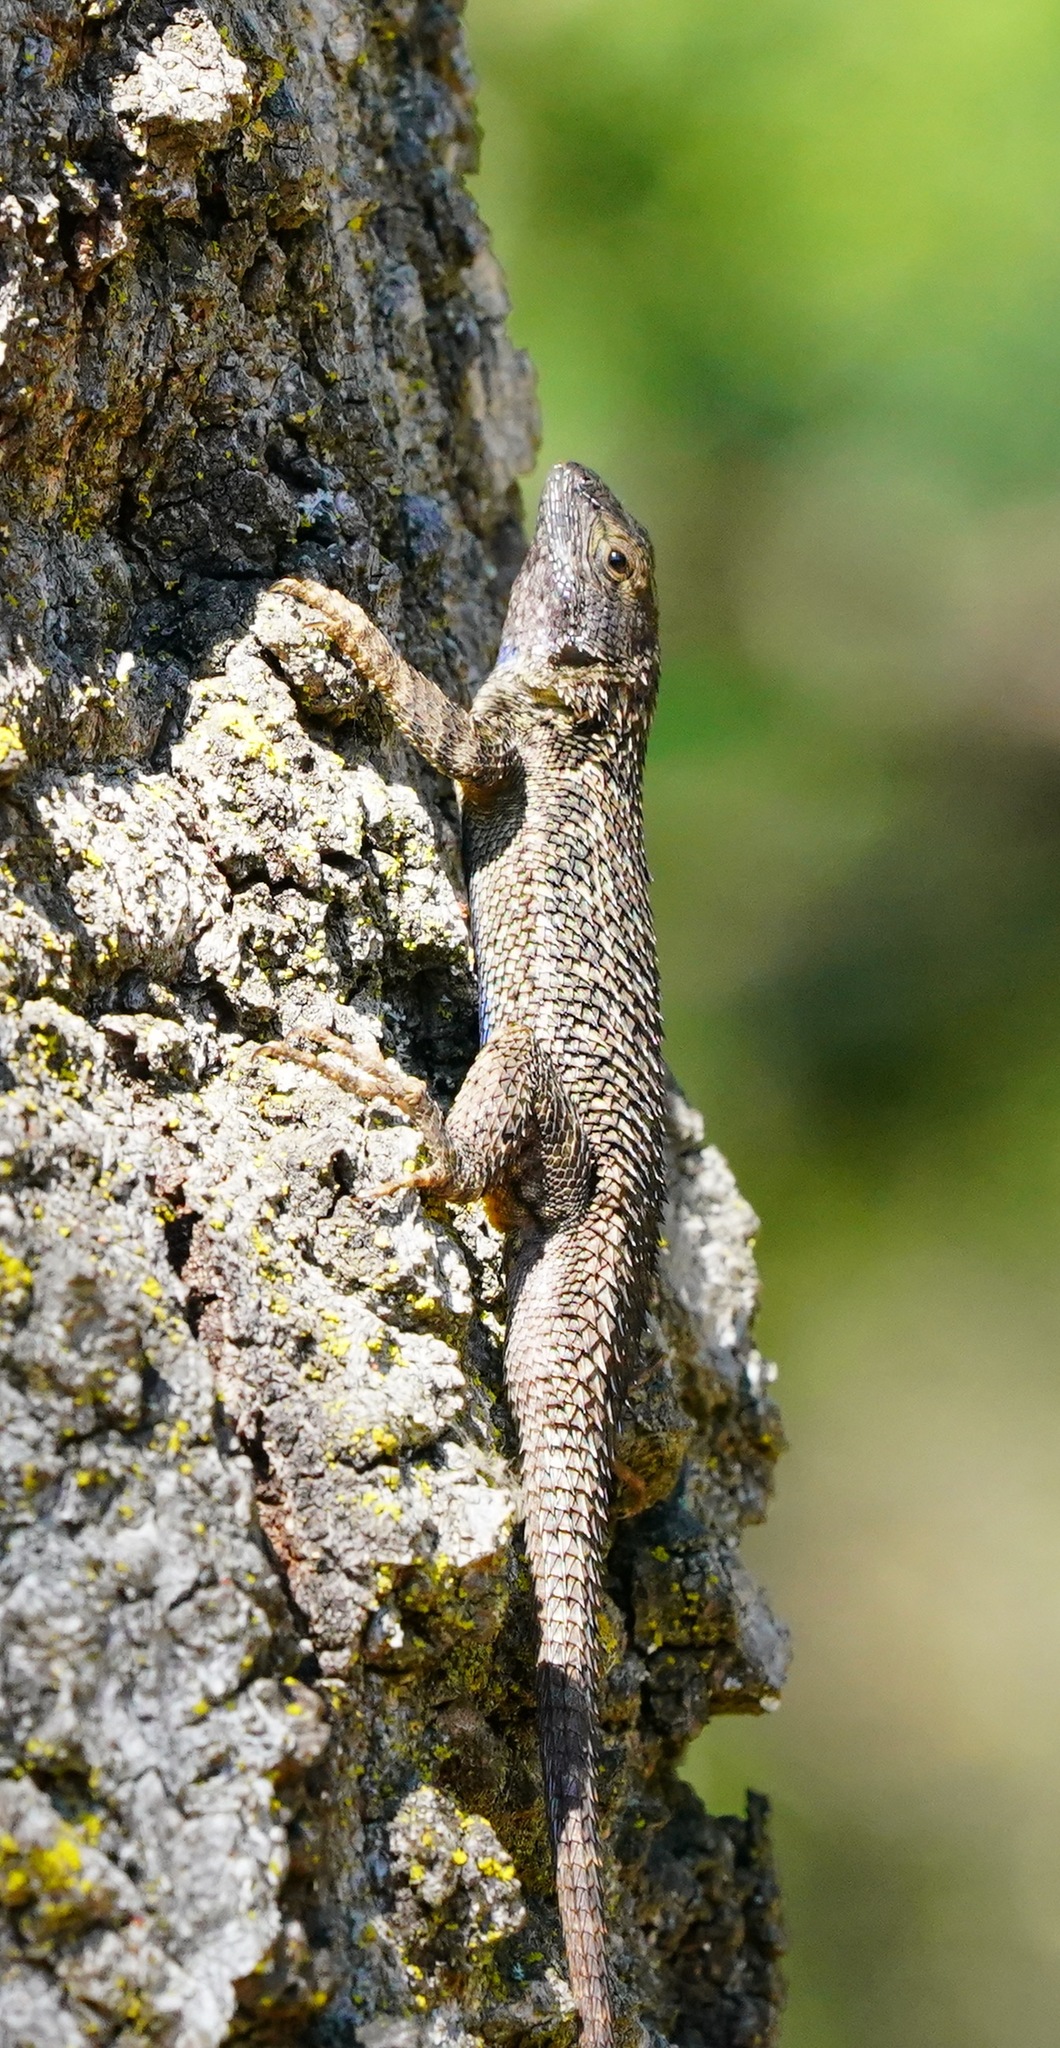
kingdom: Animalia
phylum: Chordata
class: Squamata
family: Phrynosomatidae
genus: Sceloporus
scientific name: Sceloporus occidentalis
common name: Western fence lizard
